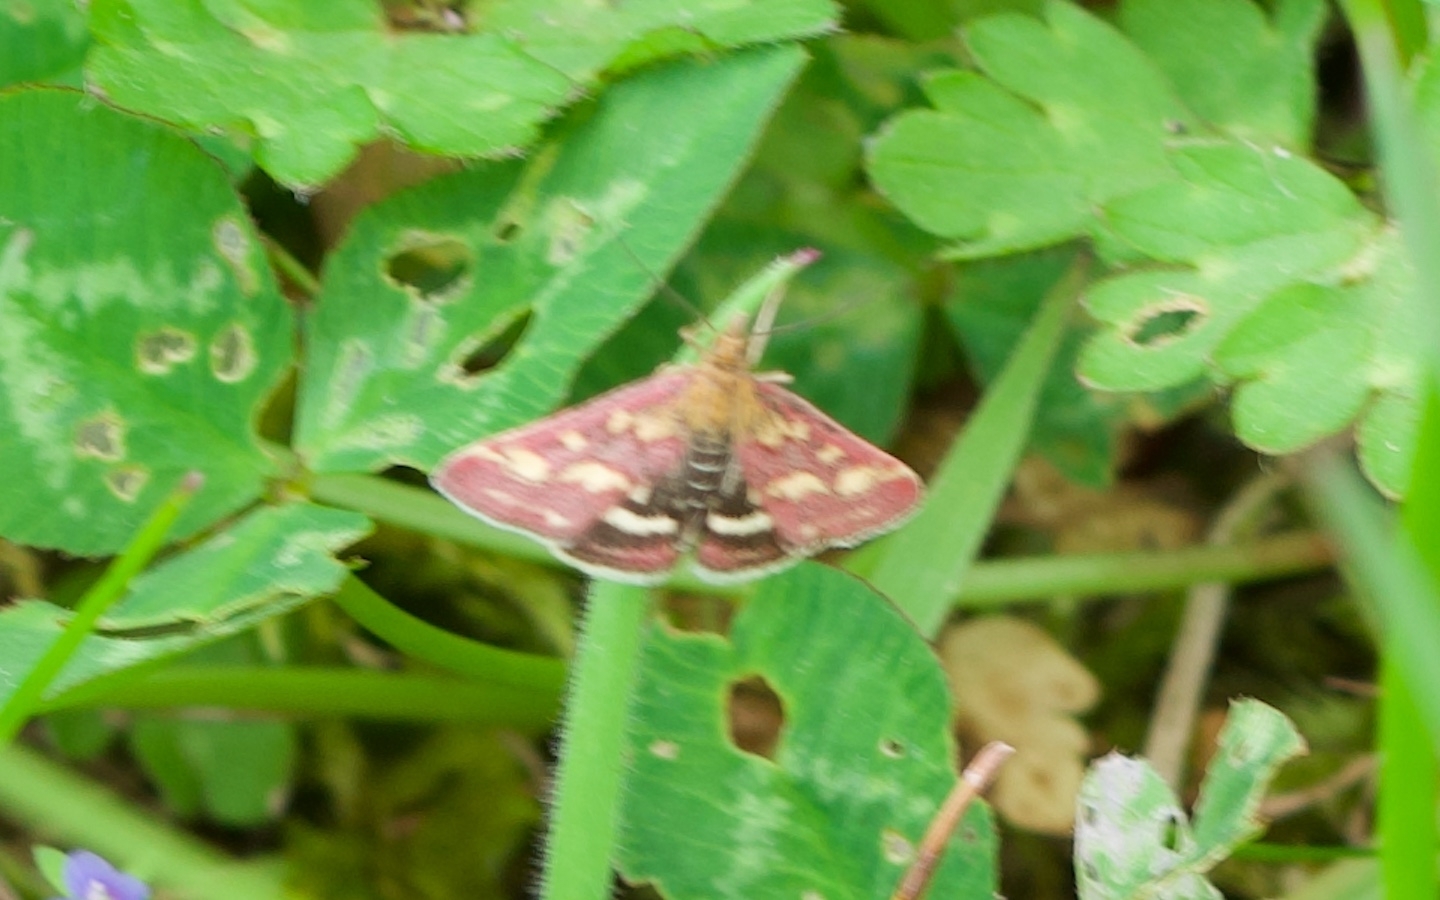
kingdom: Animalia
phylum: Arthropoda
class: Insecta
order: Lepidoptera
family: Crambidae
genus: Pyrausta
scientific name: Pyrausta purpuralis
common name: Common purple & gold
